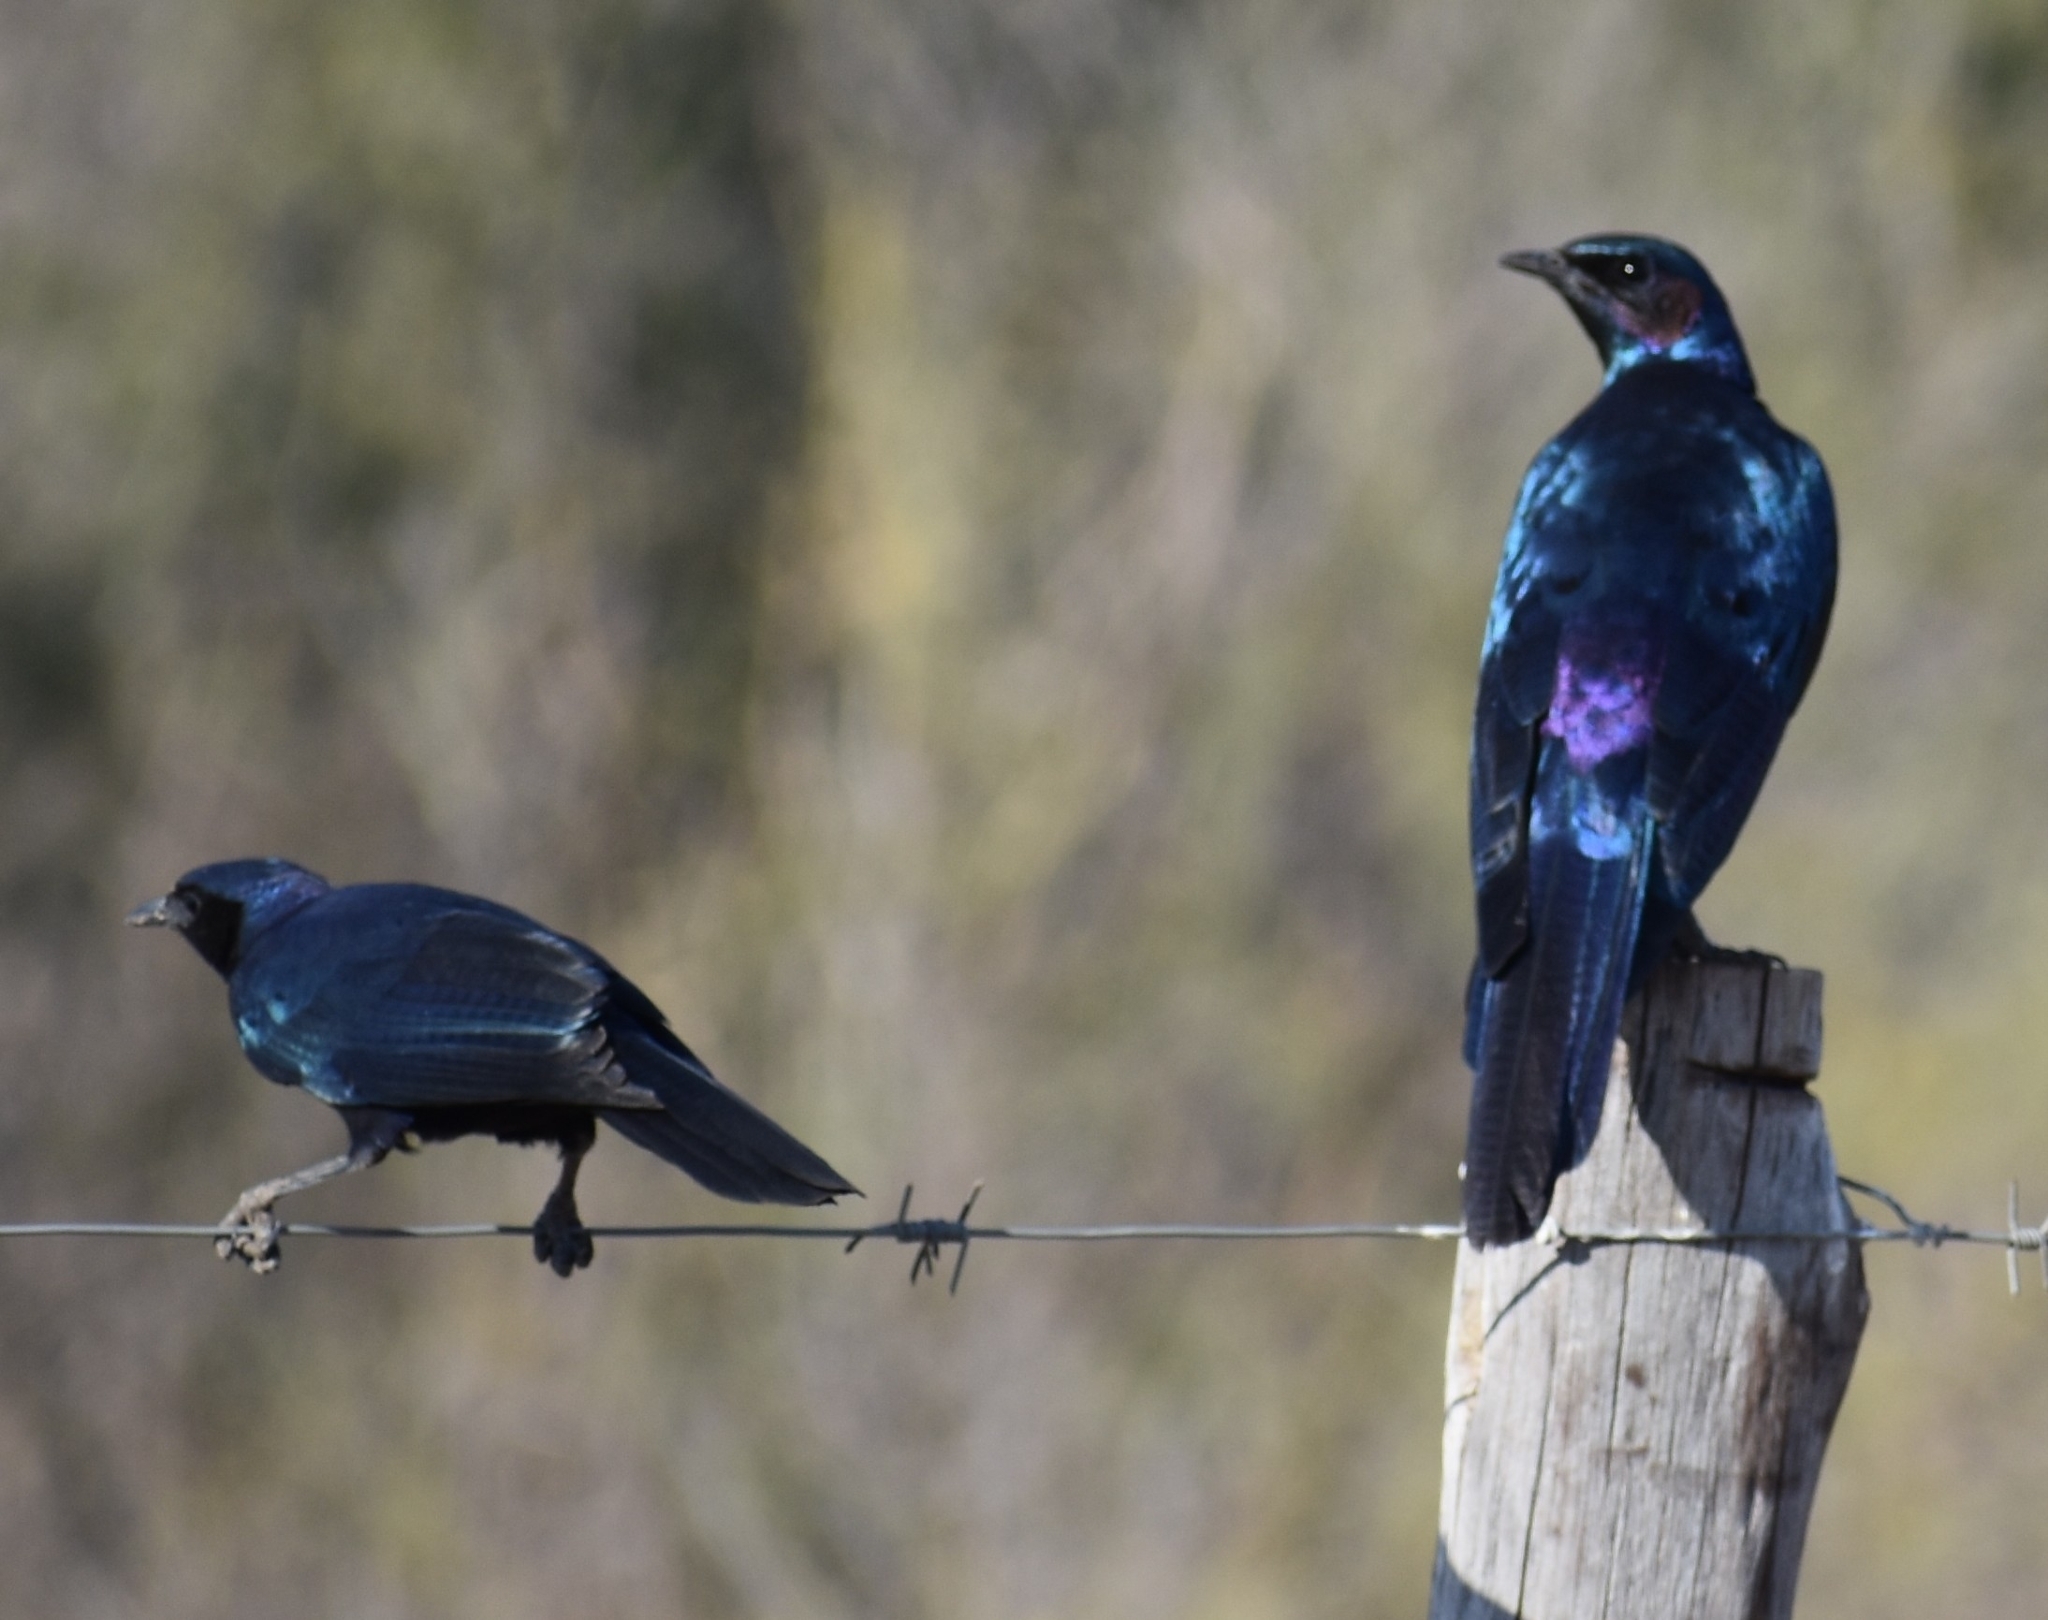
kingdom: Animalia
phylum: Chordata
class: Aves
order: Passeriformes
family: Sturnidae
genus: Lamprotornis
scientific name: Lamprotornis australis
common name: Burchell's starling
